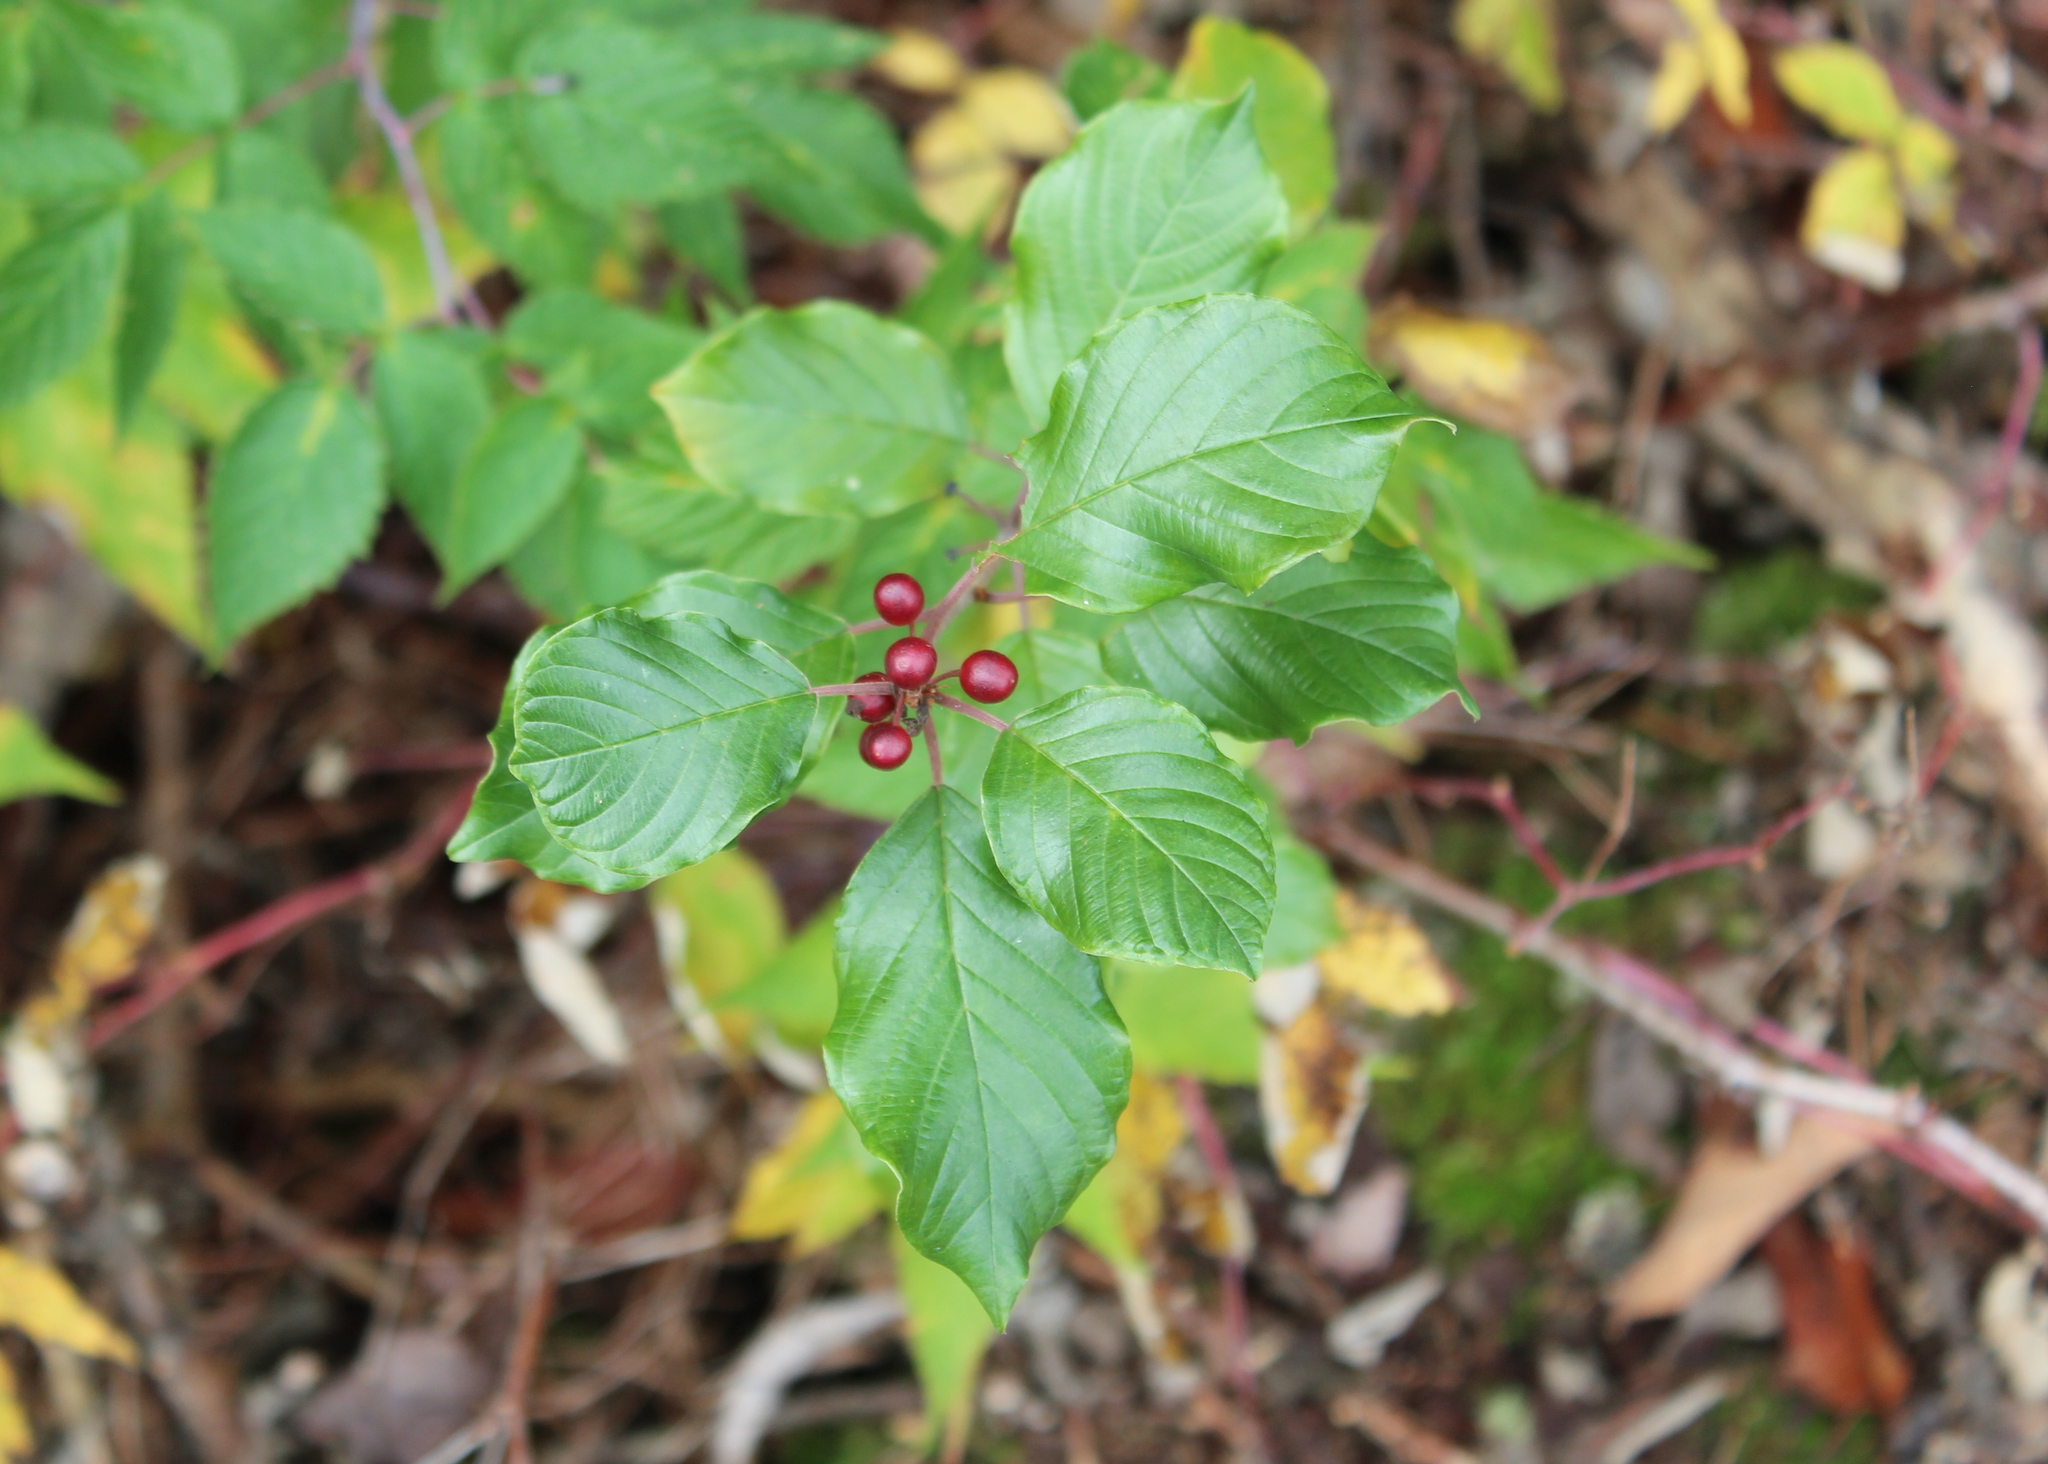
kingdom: Plantae
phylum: Tracheophyta
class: Magnoliopsida
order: Rosales
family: Rhamnaceae
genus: Frangula
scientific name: Frangula alnus
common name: Alder buckthorn
